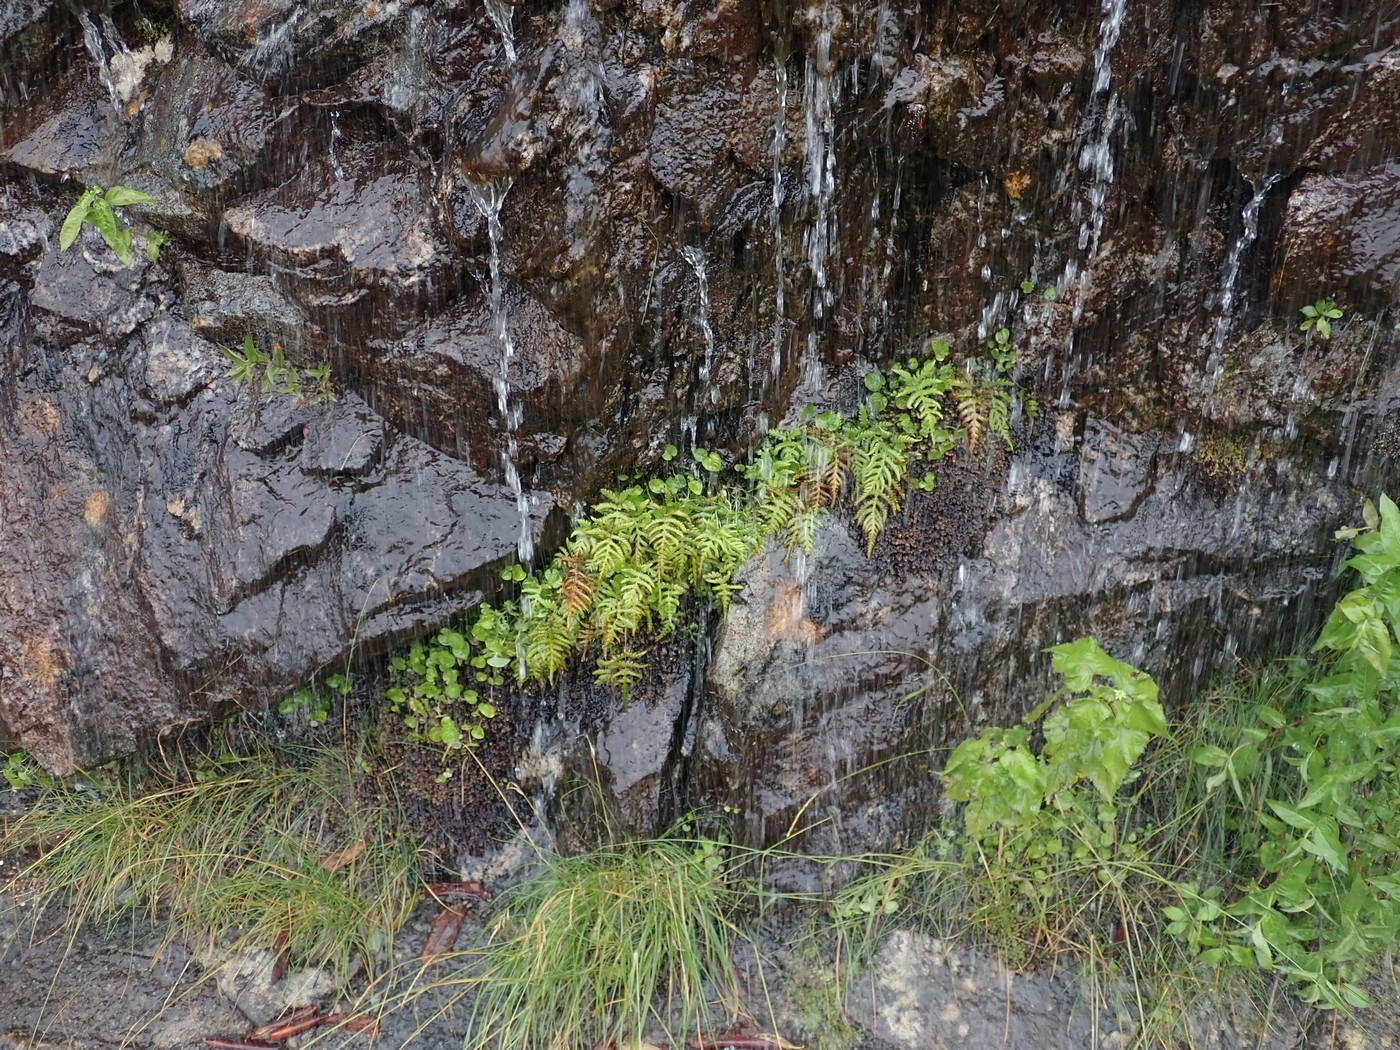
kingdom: Plantae
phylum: Tracheophyta
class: Polypodiopsida
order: Polypodiales
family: Thelypteridaceae
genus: Phegopteris
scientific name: Phegopteris connectilis
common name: Beech fern
